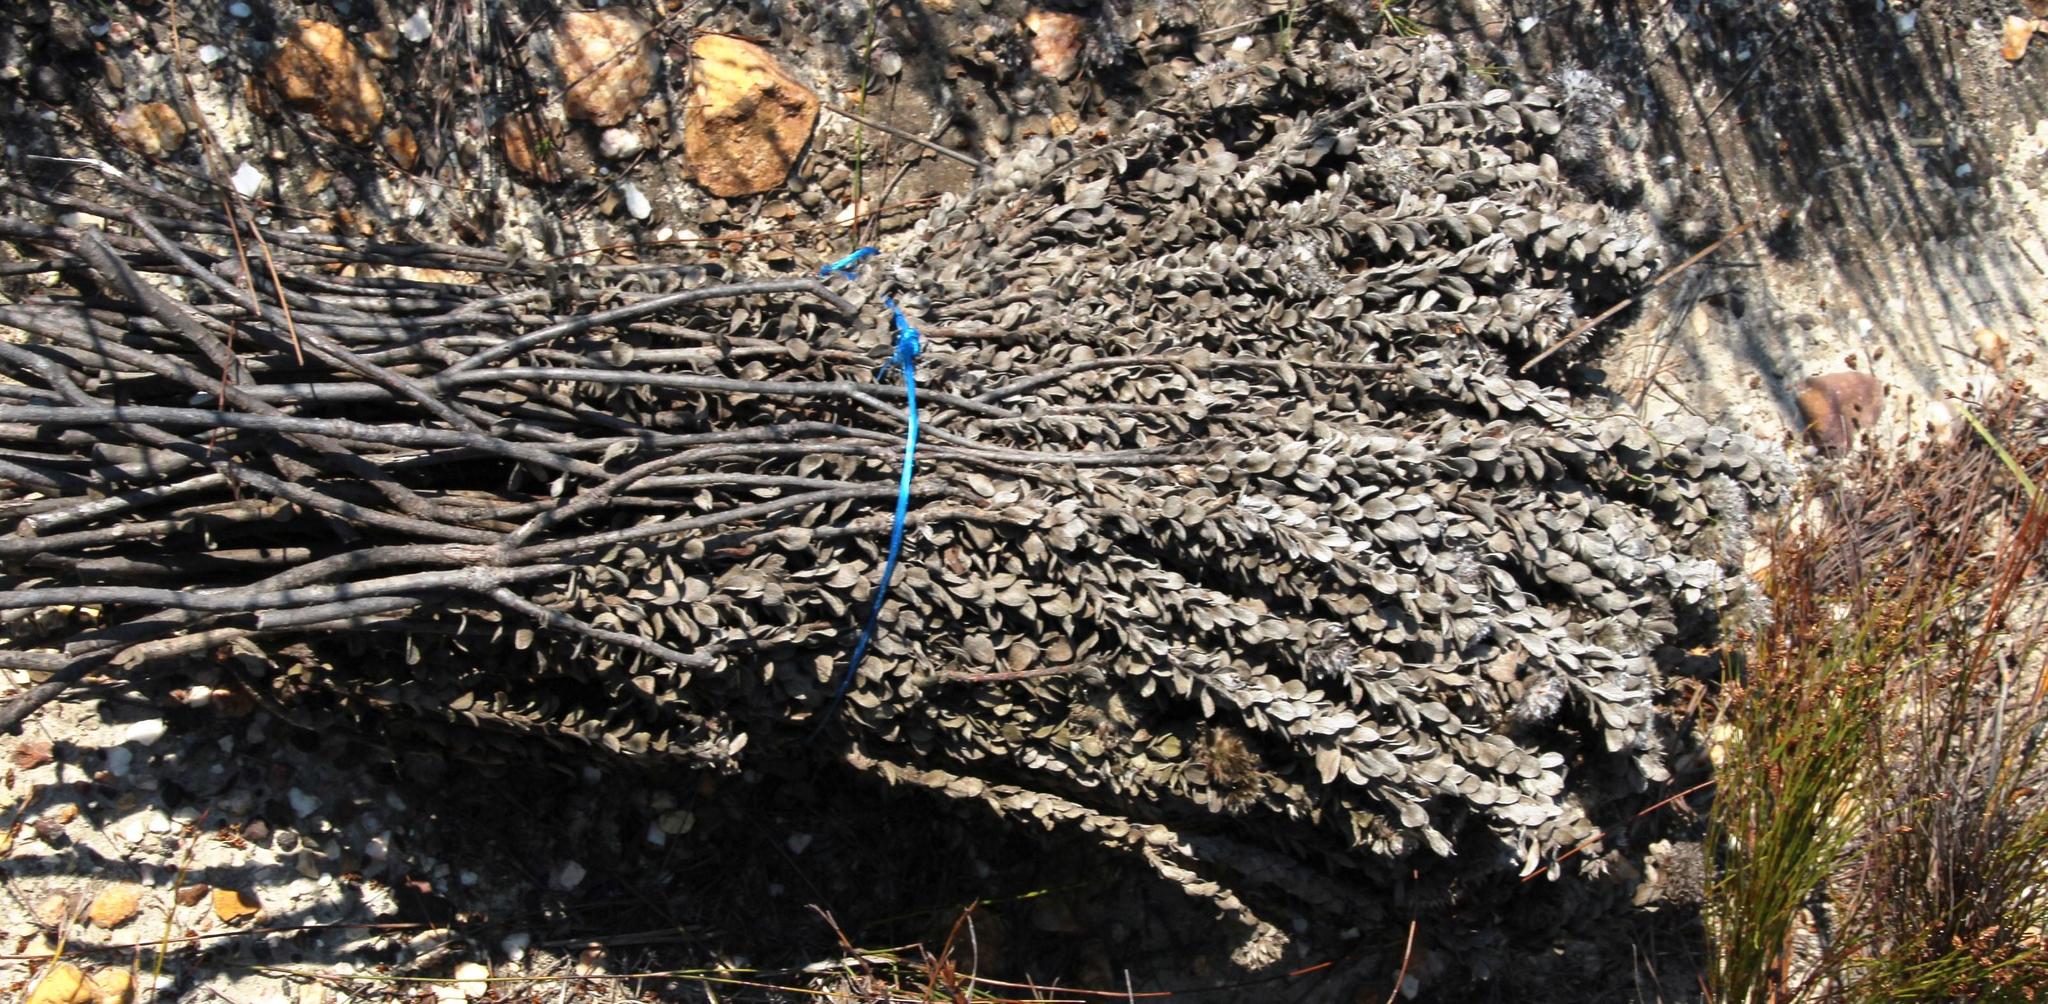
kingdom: Plantae
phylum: Tracheophyta
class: Magnoliopsida
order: Proteales
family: Proteaceae
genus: Leucospermum
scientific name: Leucospermum truncatulum
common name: Oval-leaf pincushion
